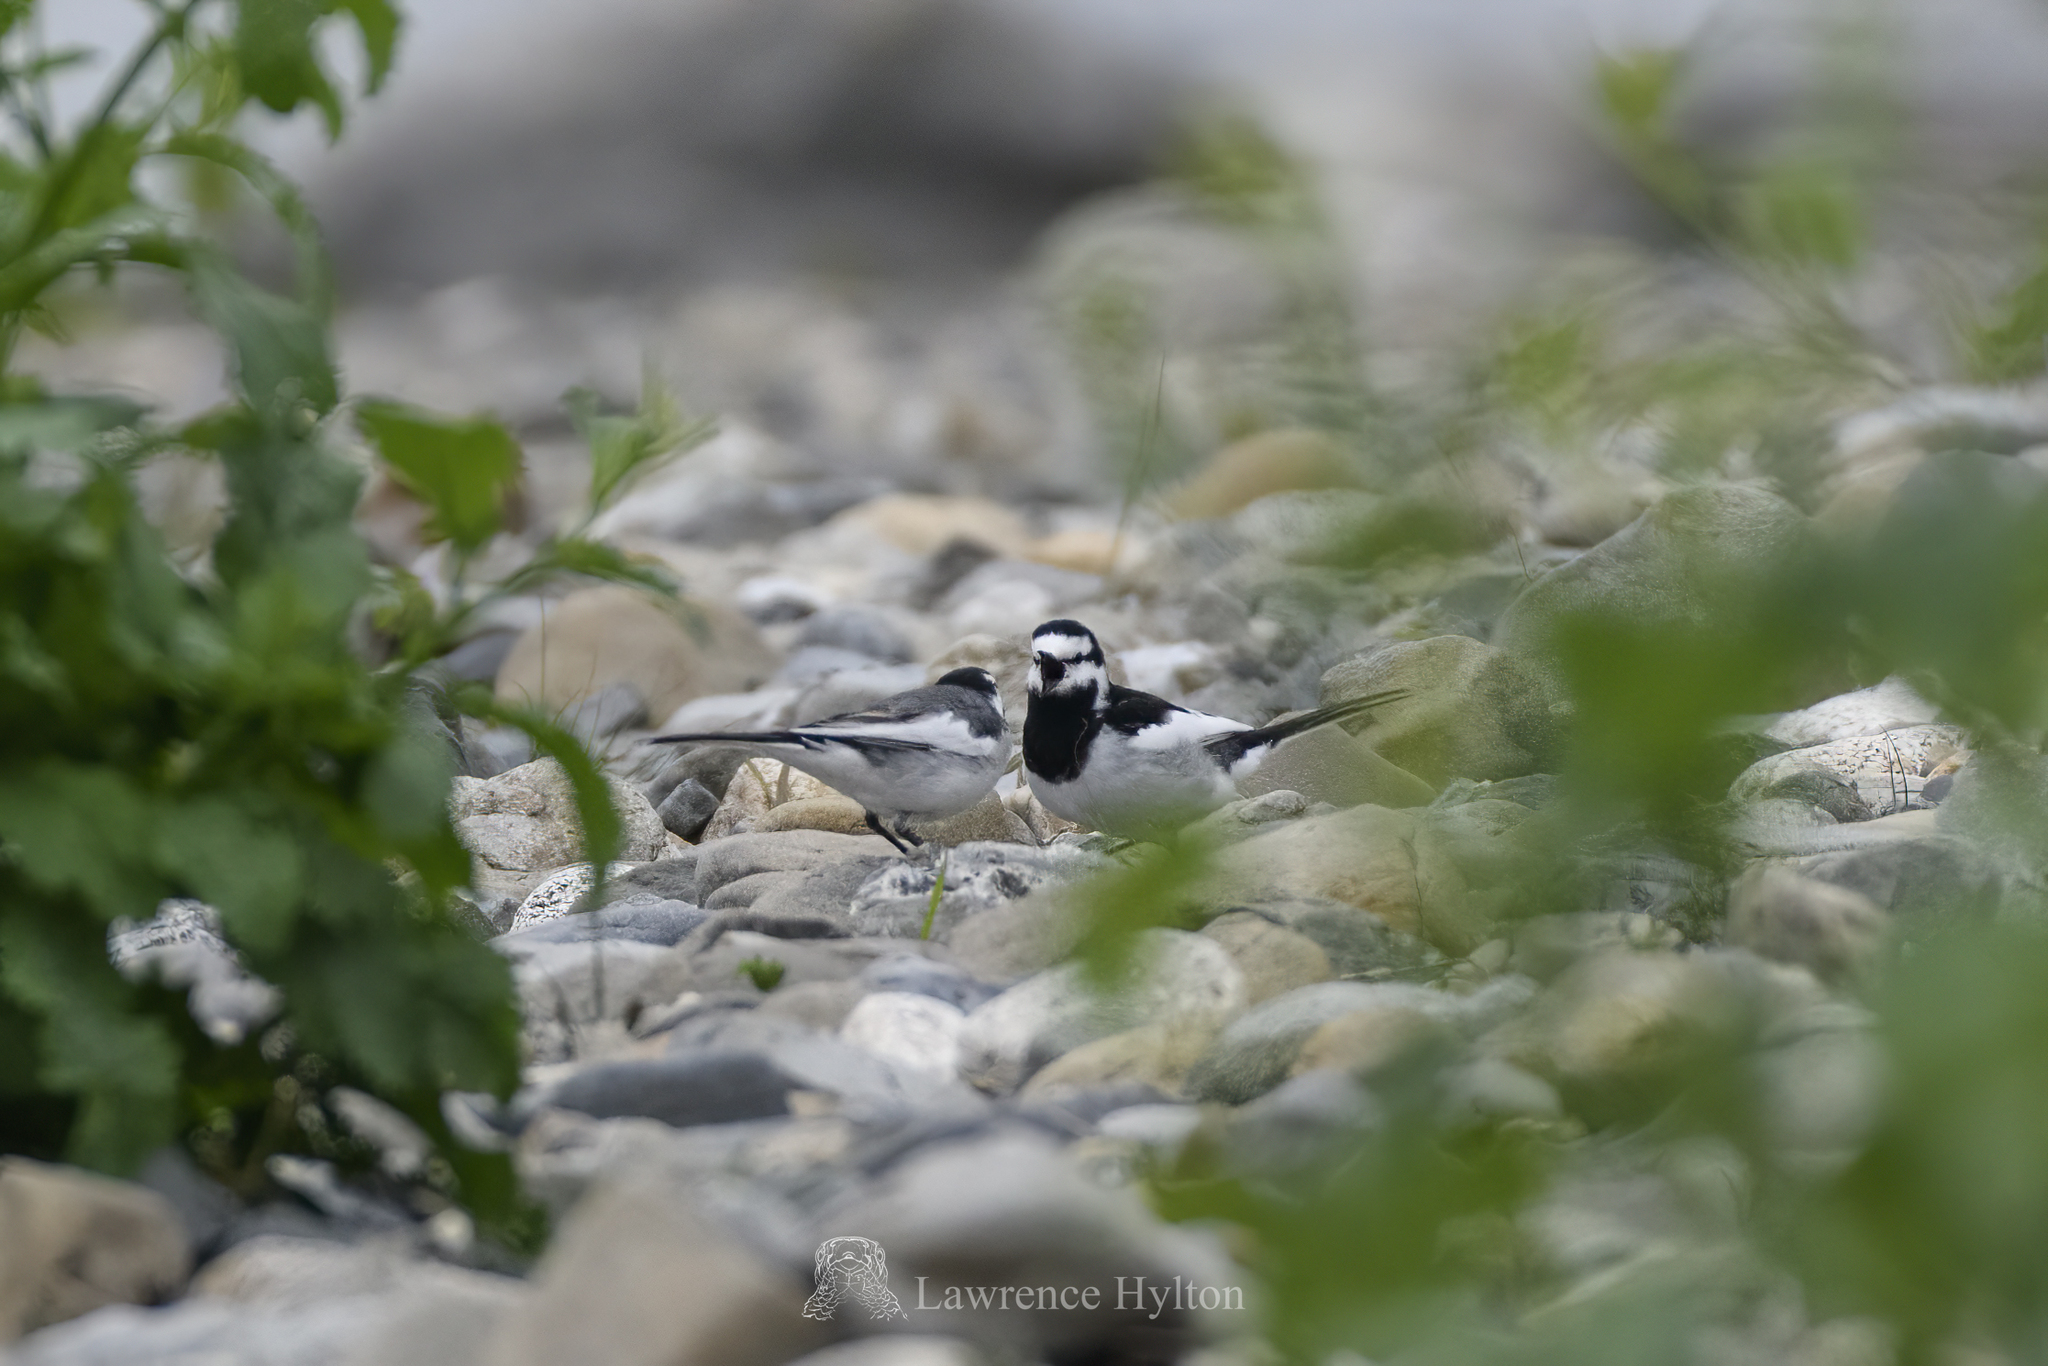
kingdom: Animalia
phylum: Chordata
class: Aves
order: Passeriformes
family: Motacillidae
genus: Motacilla
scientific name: Motacilla alba
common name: White wagtail
